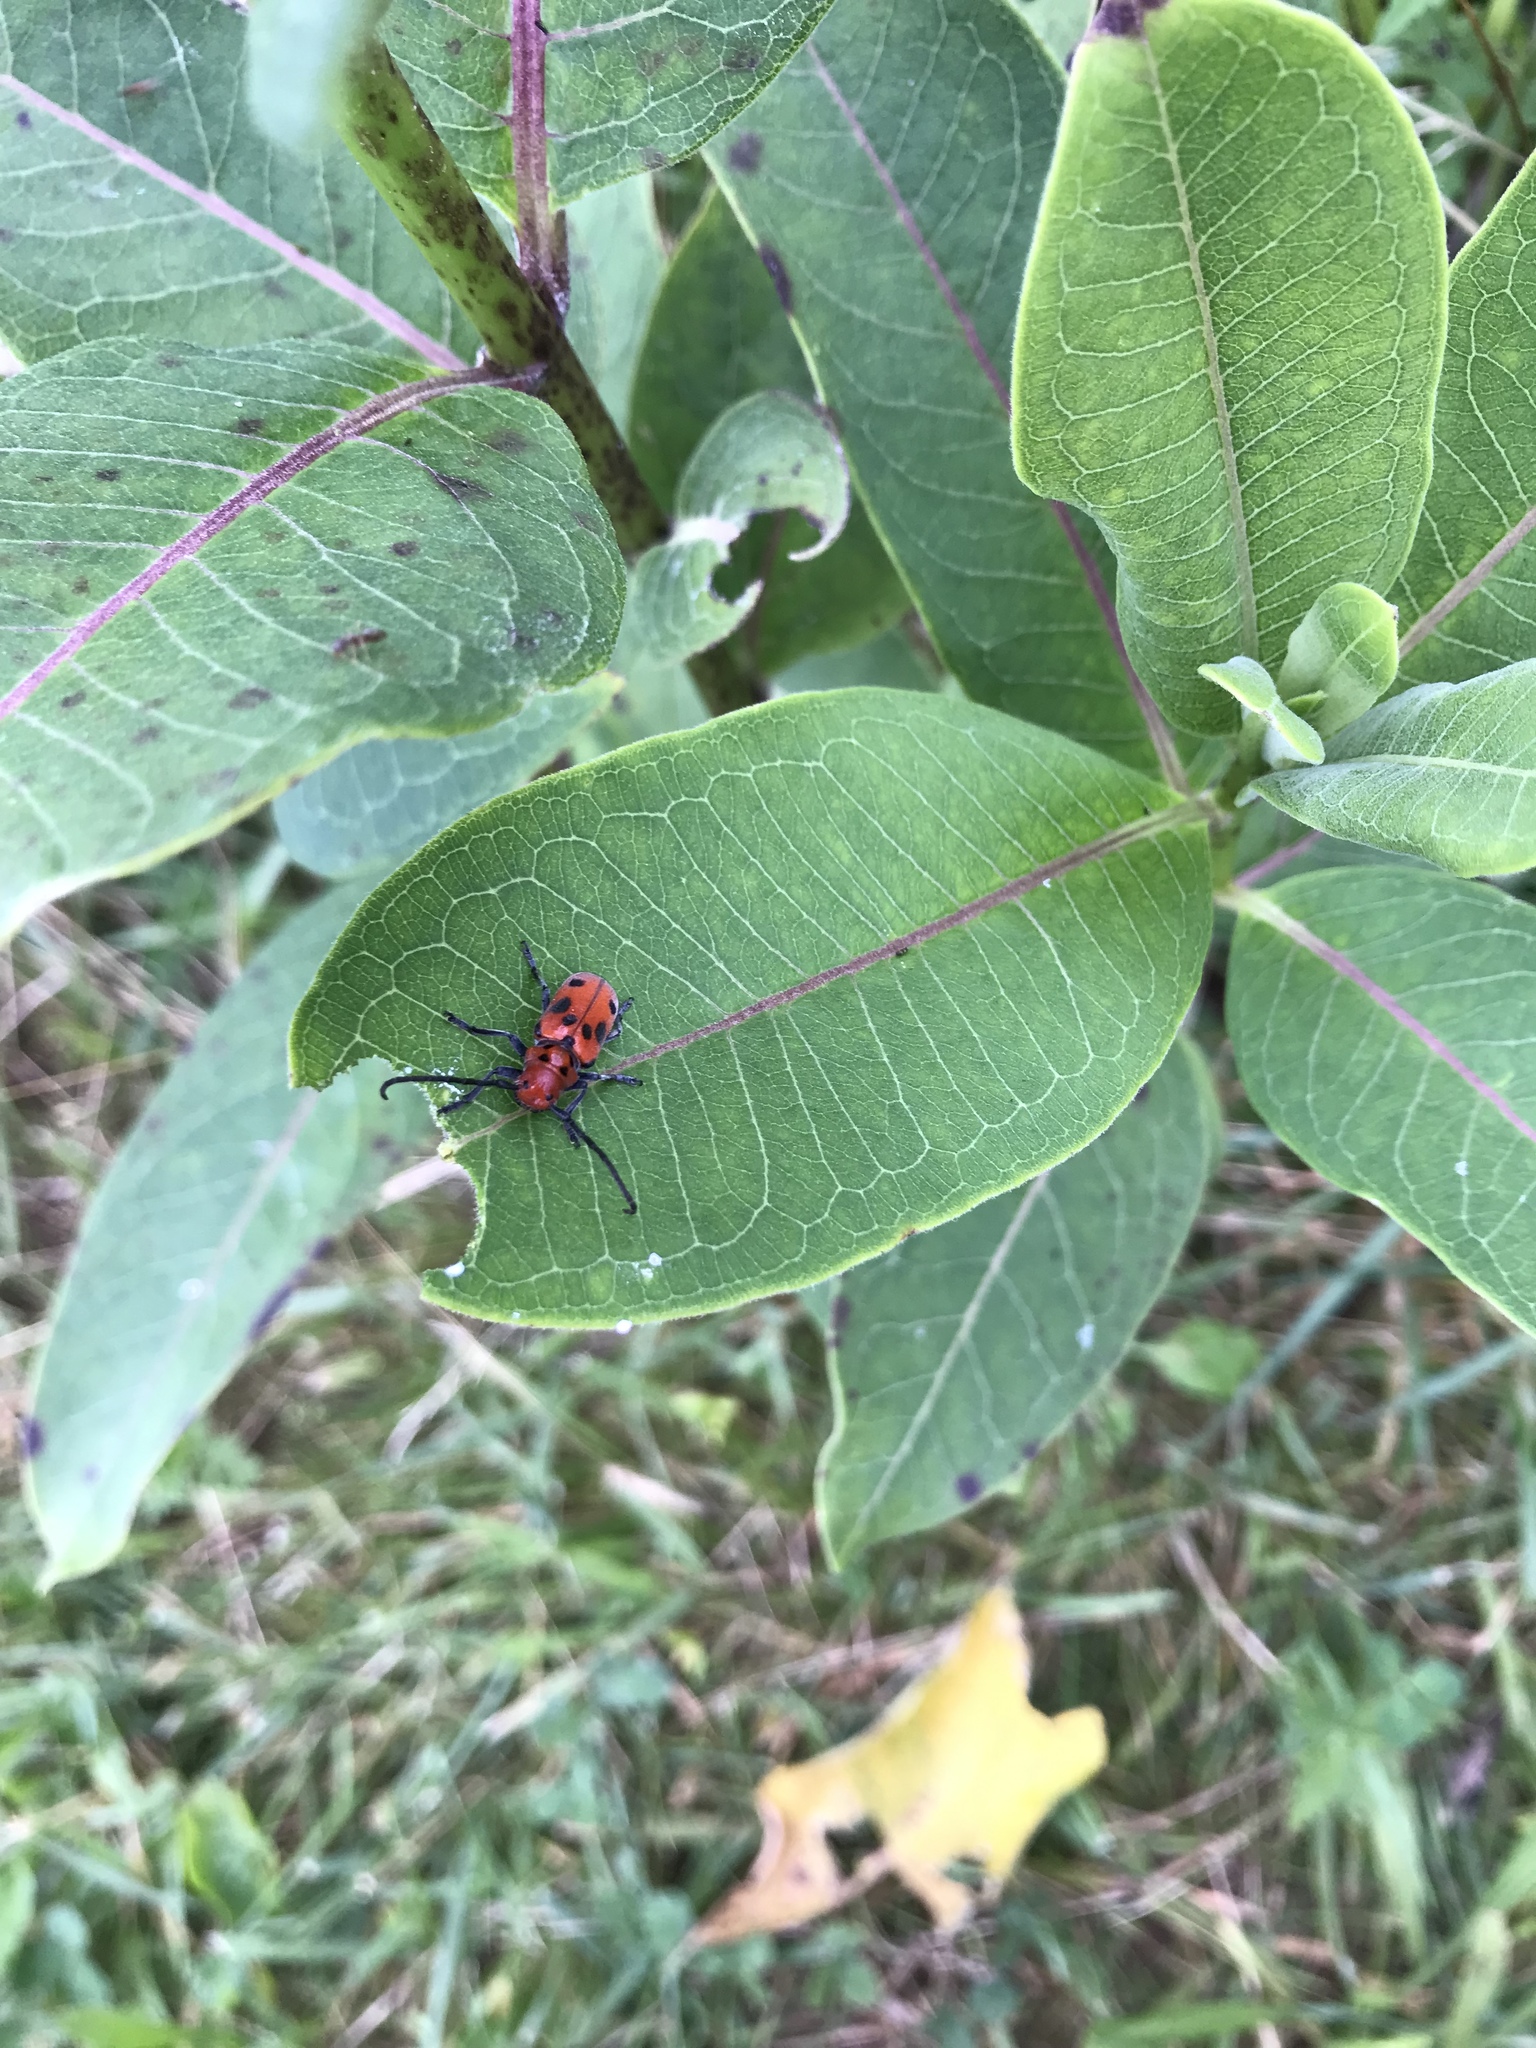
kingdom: Animalia
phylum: Arthropoda
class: Insecta
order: Coleoptera
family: Cerambycidae
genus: Tetraopes
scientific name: Tetraopes tetrophthalmus
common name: Red milkweed beetle
